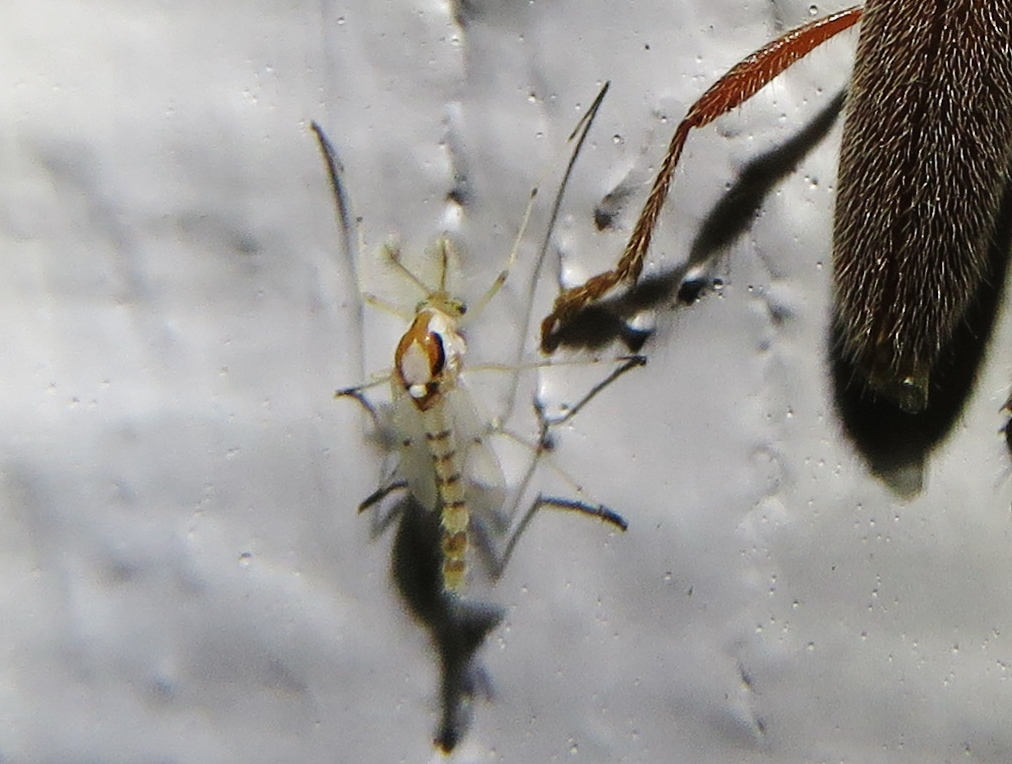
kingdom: Animalia
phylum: Arthropoda
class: Insecta
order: Diptera
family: Chironomidae
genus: Coelotanypus
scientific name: Coelotanypus concinnus
